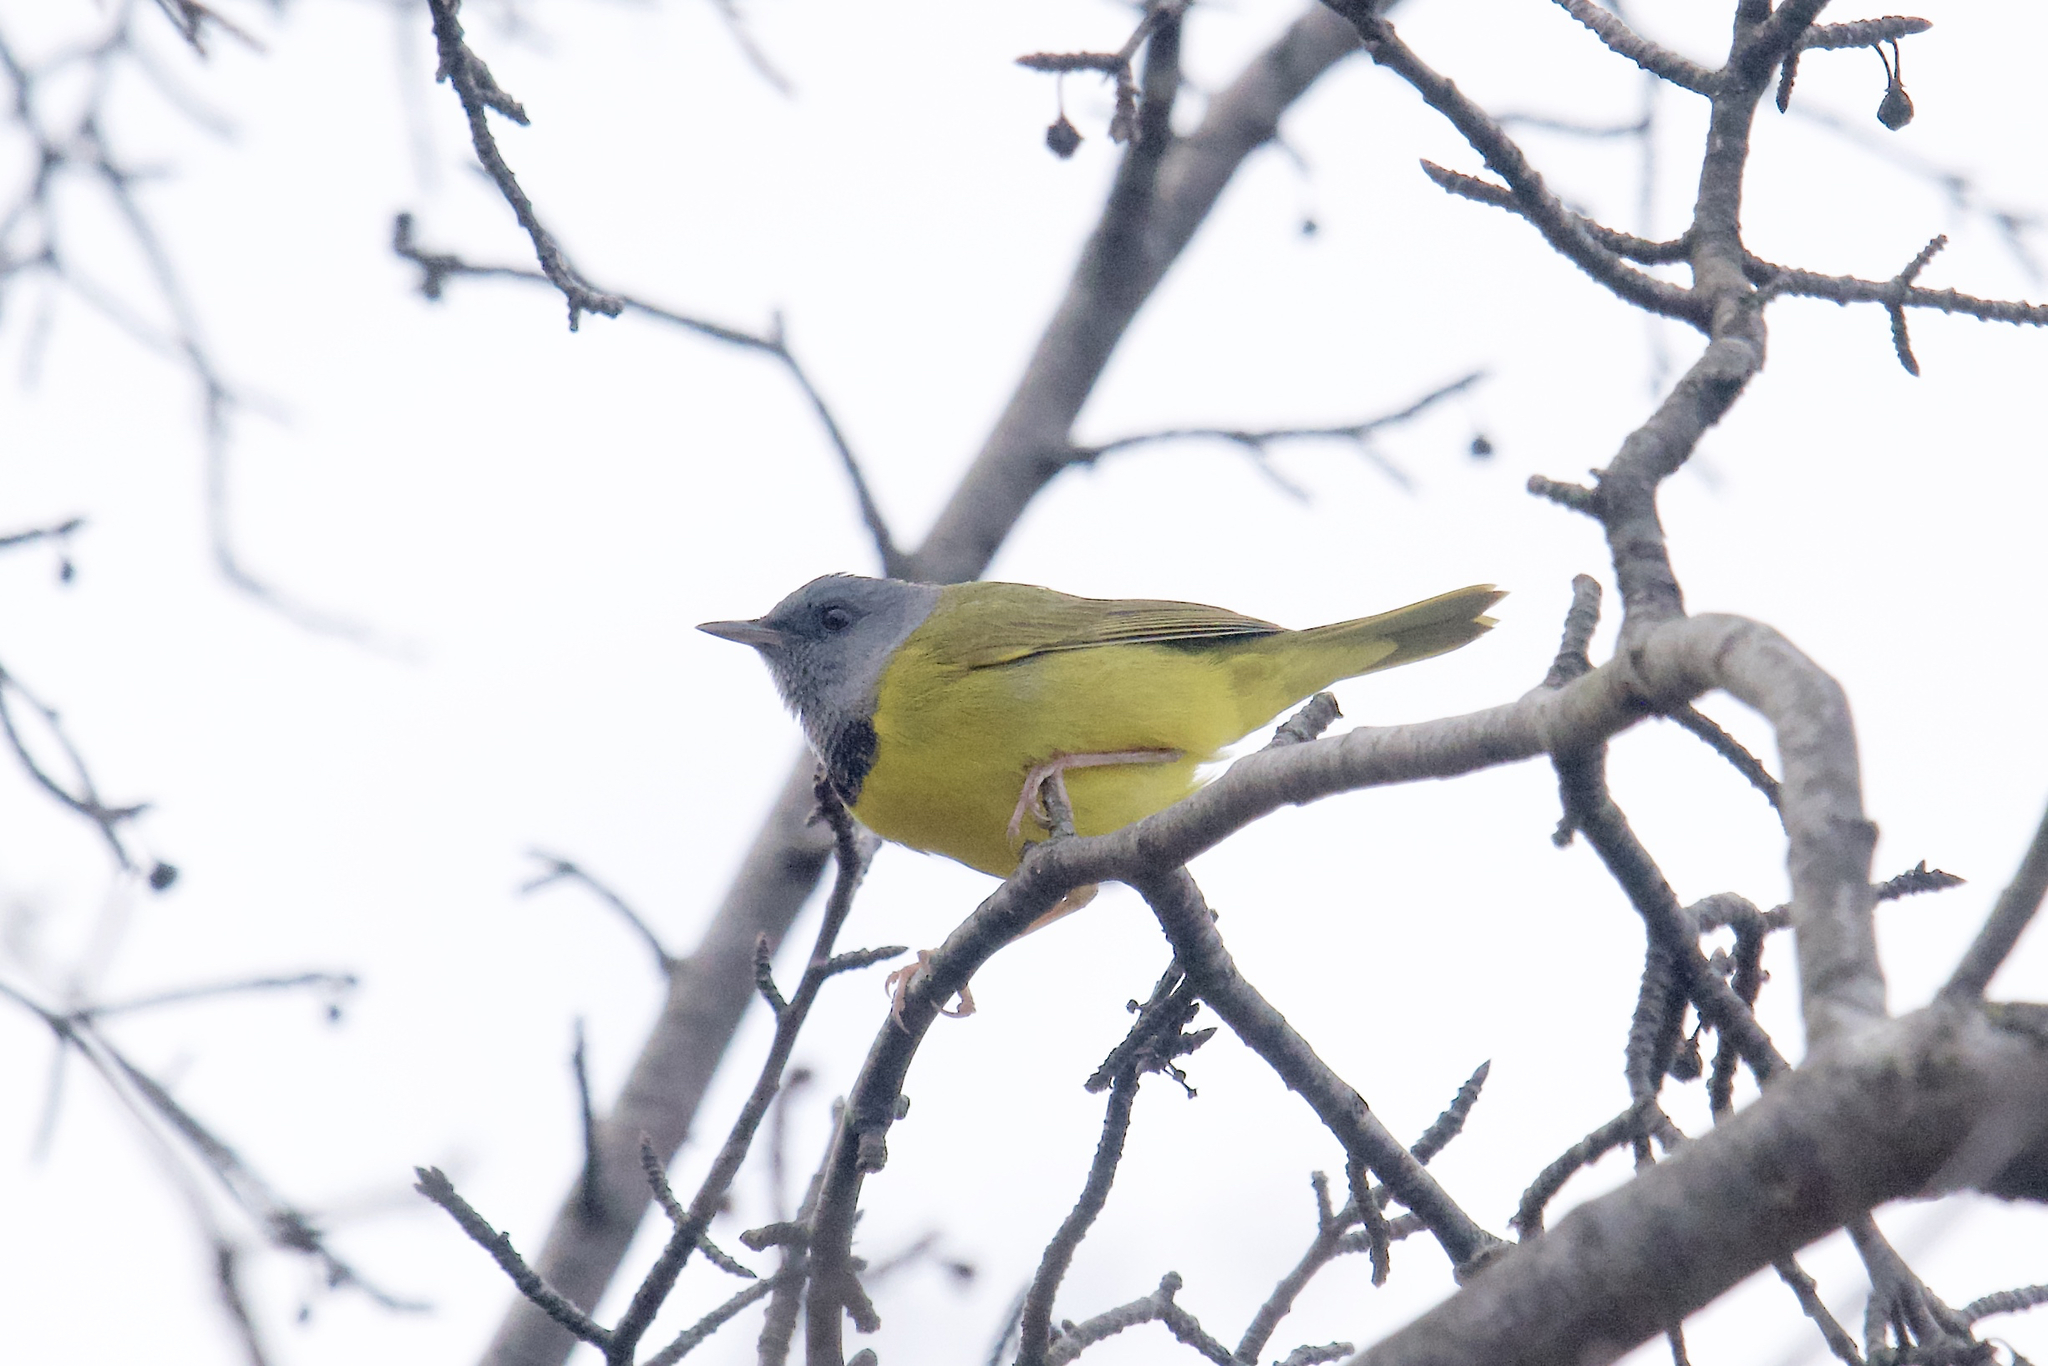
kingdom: Animalia
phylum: Chordata
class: Aves
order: Passeriformes
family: Parulidae
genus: Geothlypis
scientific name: Geothlypis philadelphia
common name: Mourning warbler
